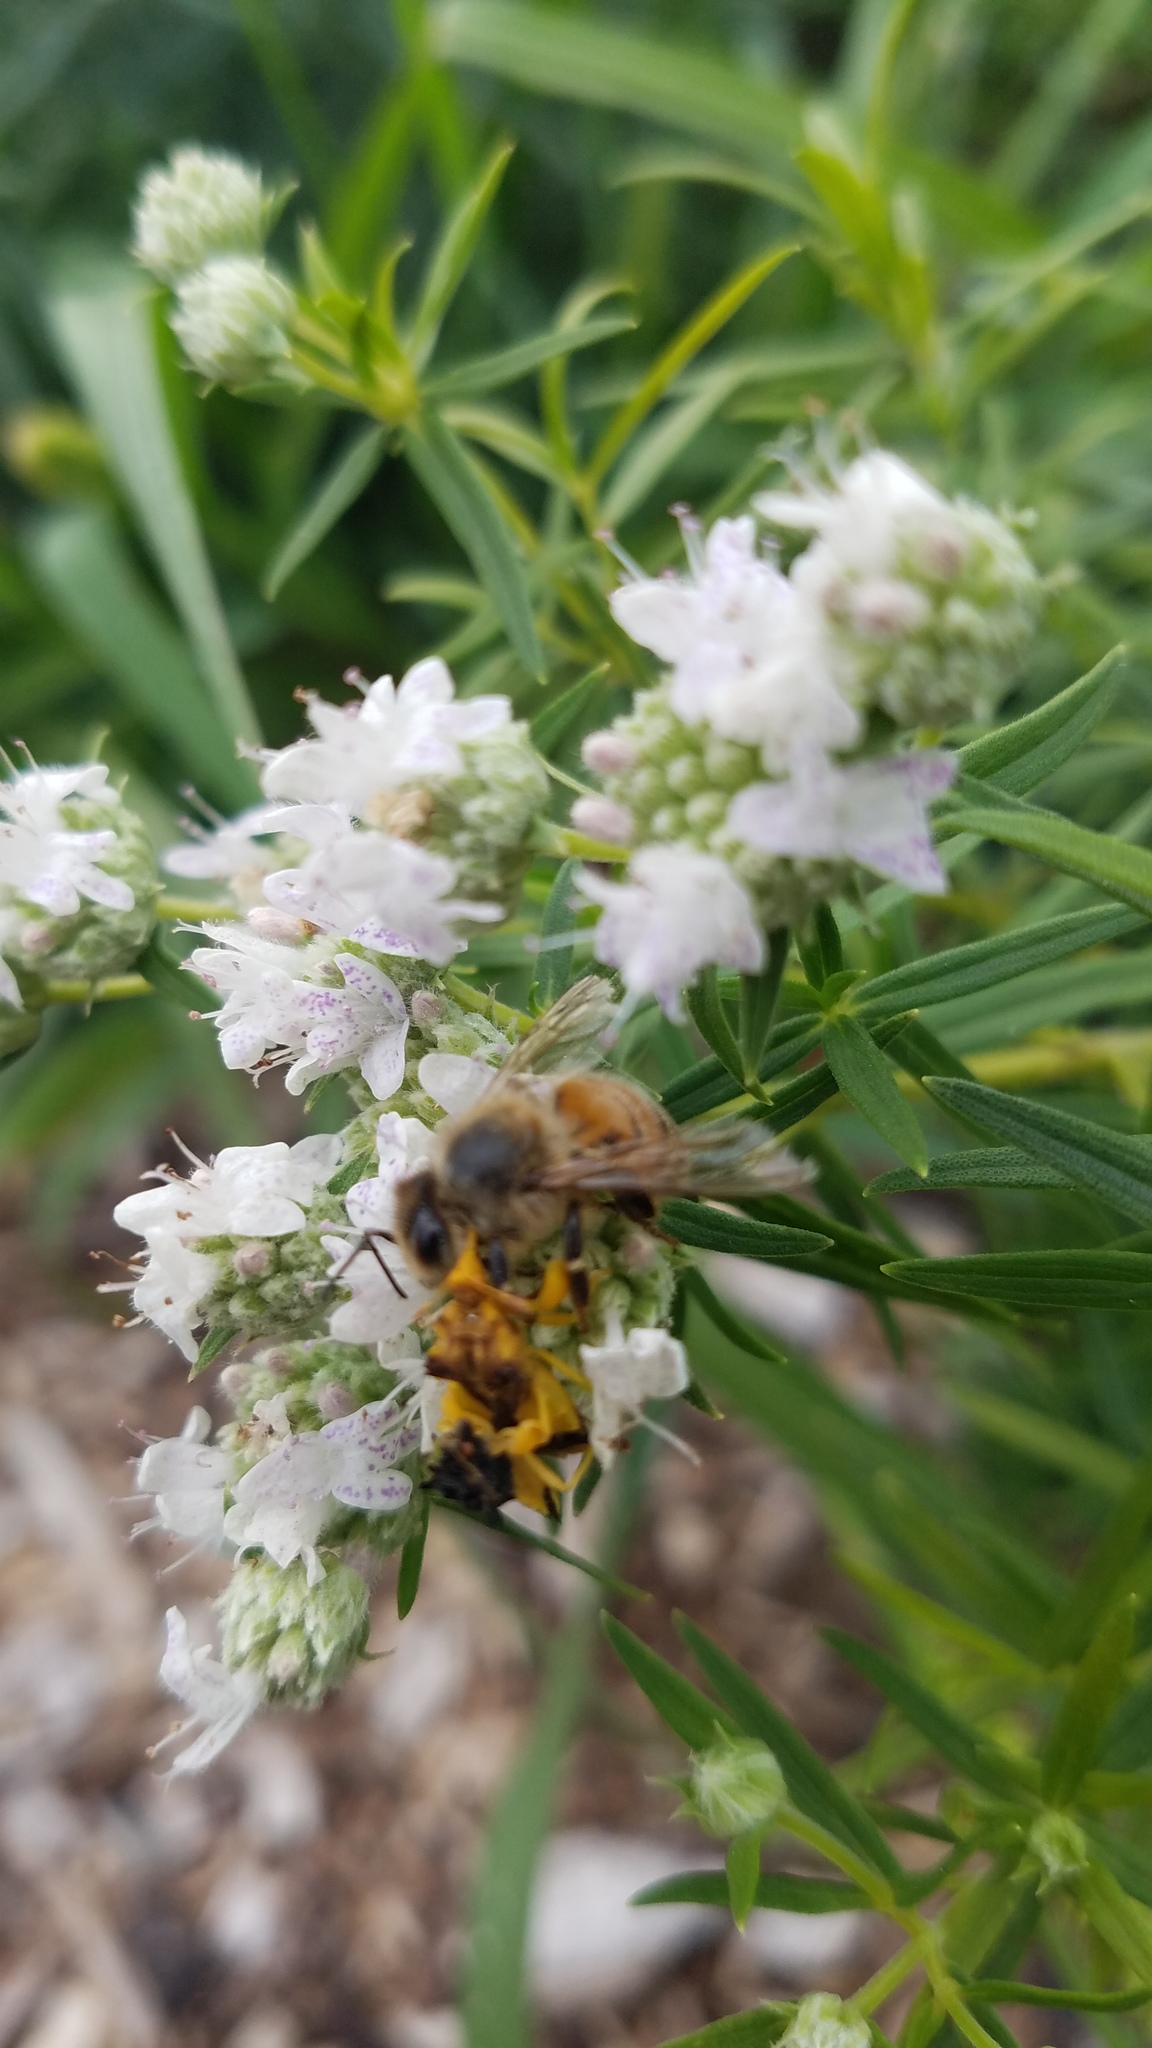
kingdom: Animalia
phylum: Arthropoda
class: Insecta
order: Hymenoptera
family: Apidae
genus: Apis
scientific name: Apis mellifera
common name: Honey bee
